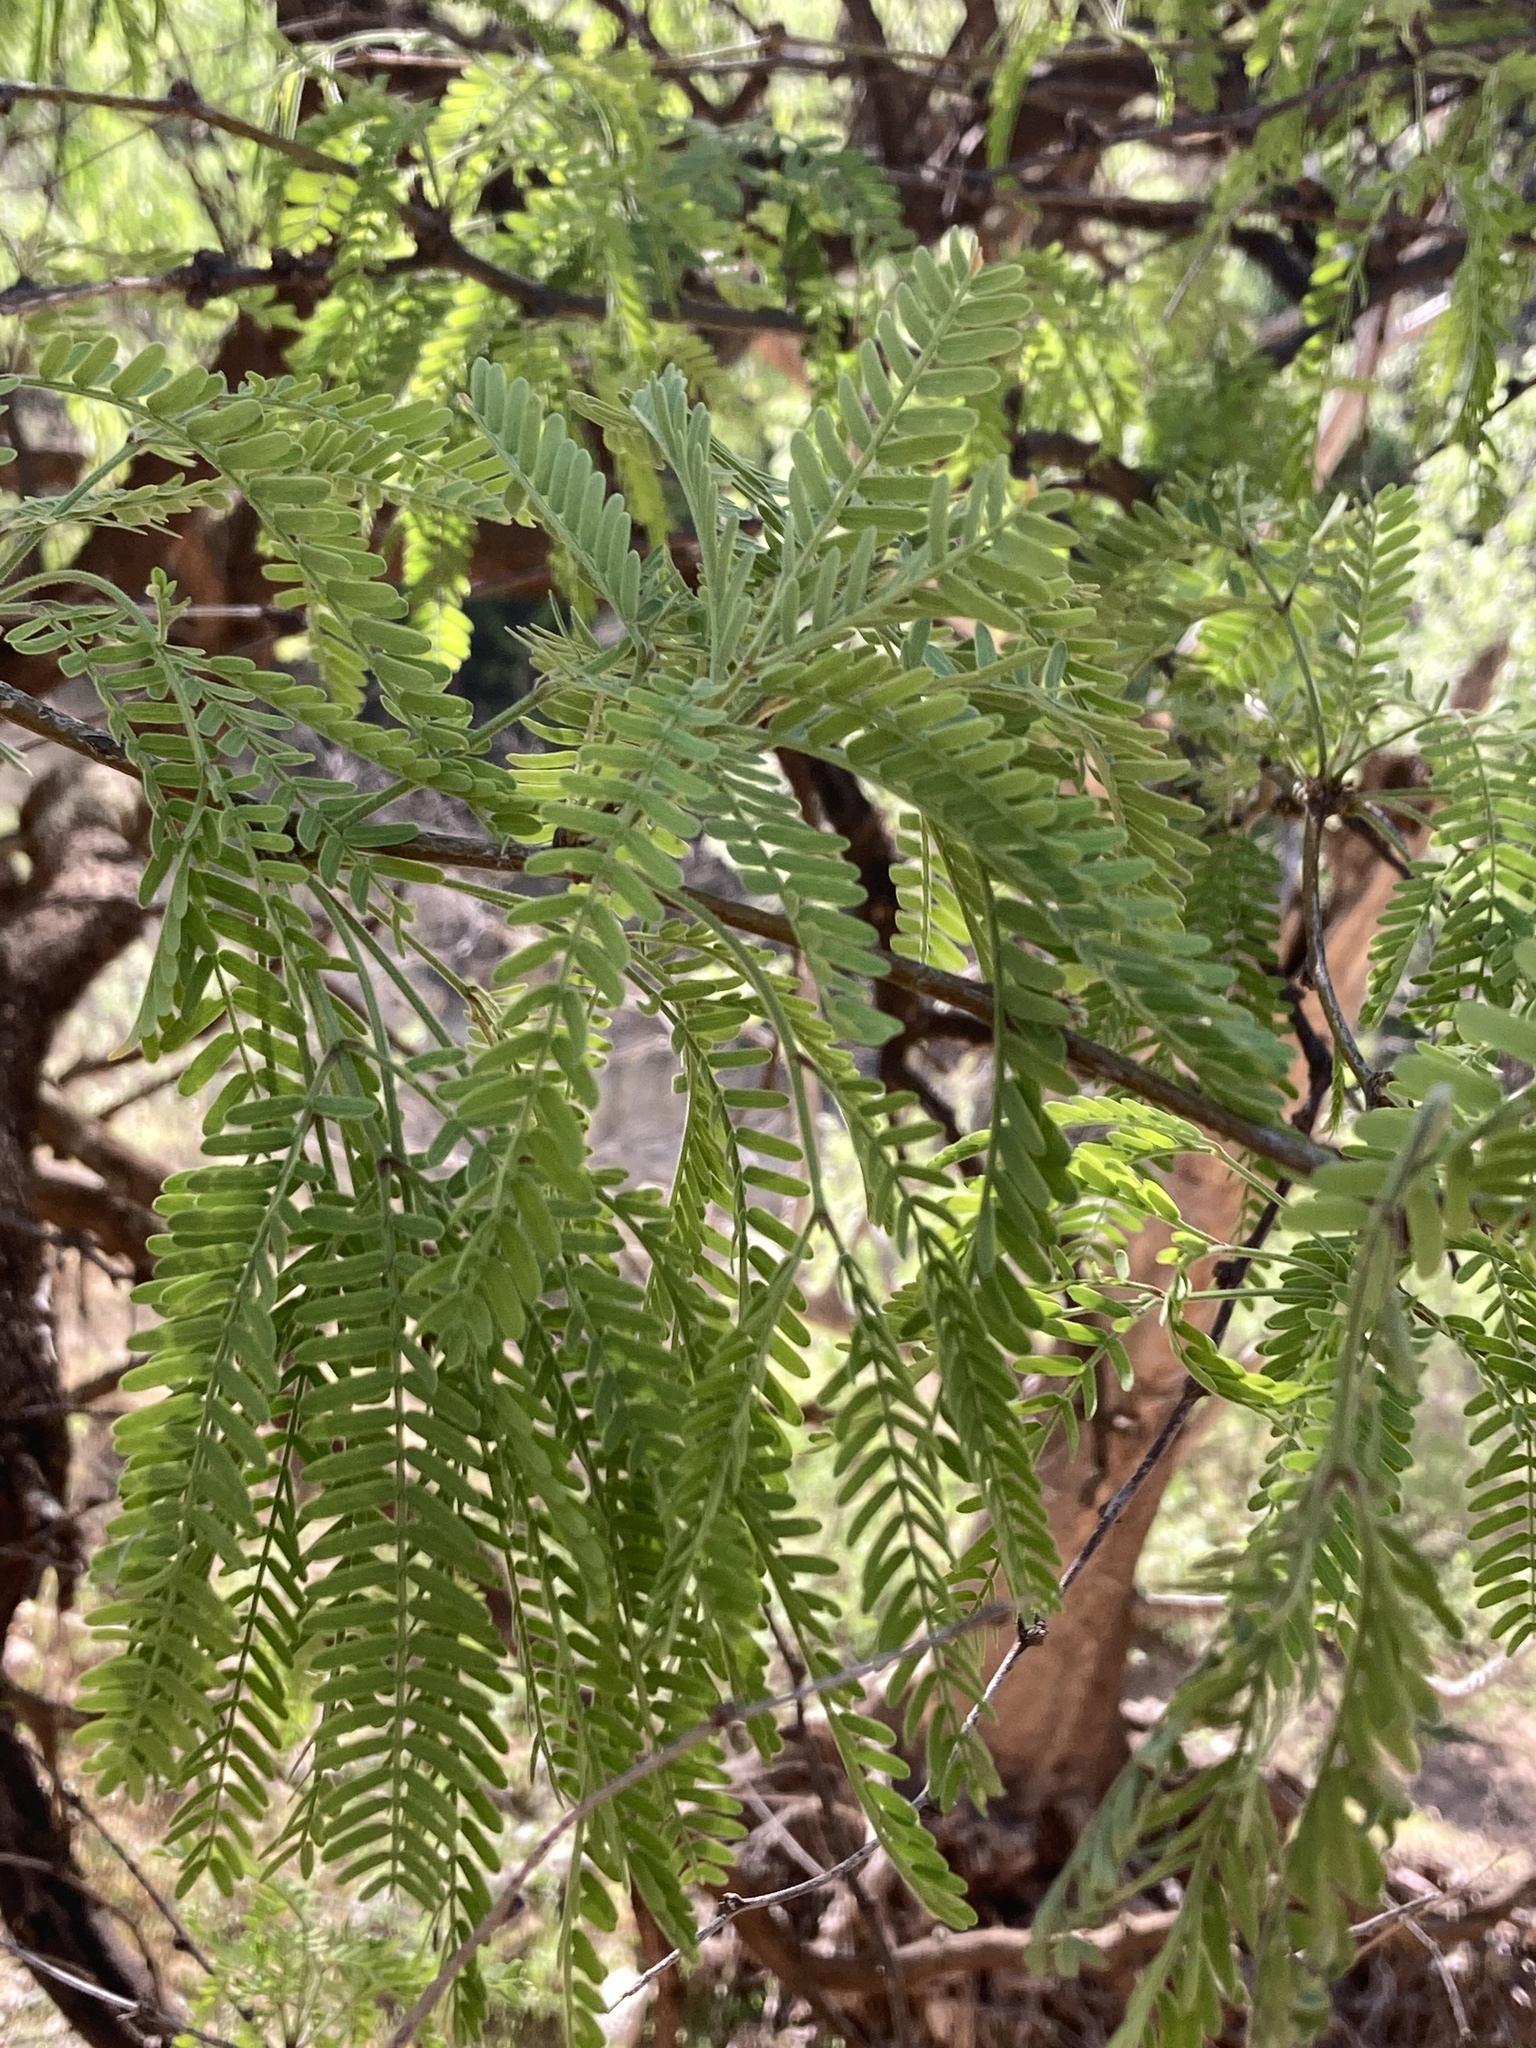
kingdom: Plantae
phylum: Tracheophyta
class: Magnoliopsida
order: Fabales
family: Fabaceae
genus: Prosopis
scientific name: Prosopis velutina
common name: Velvet mesquite
